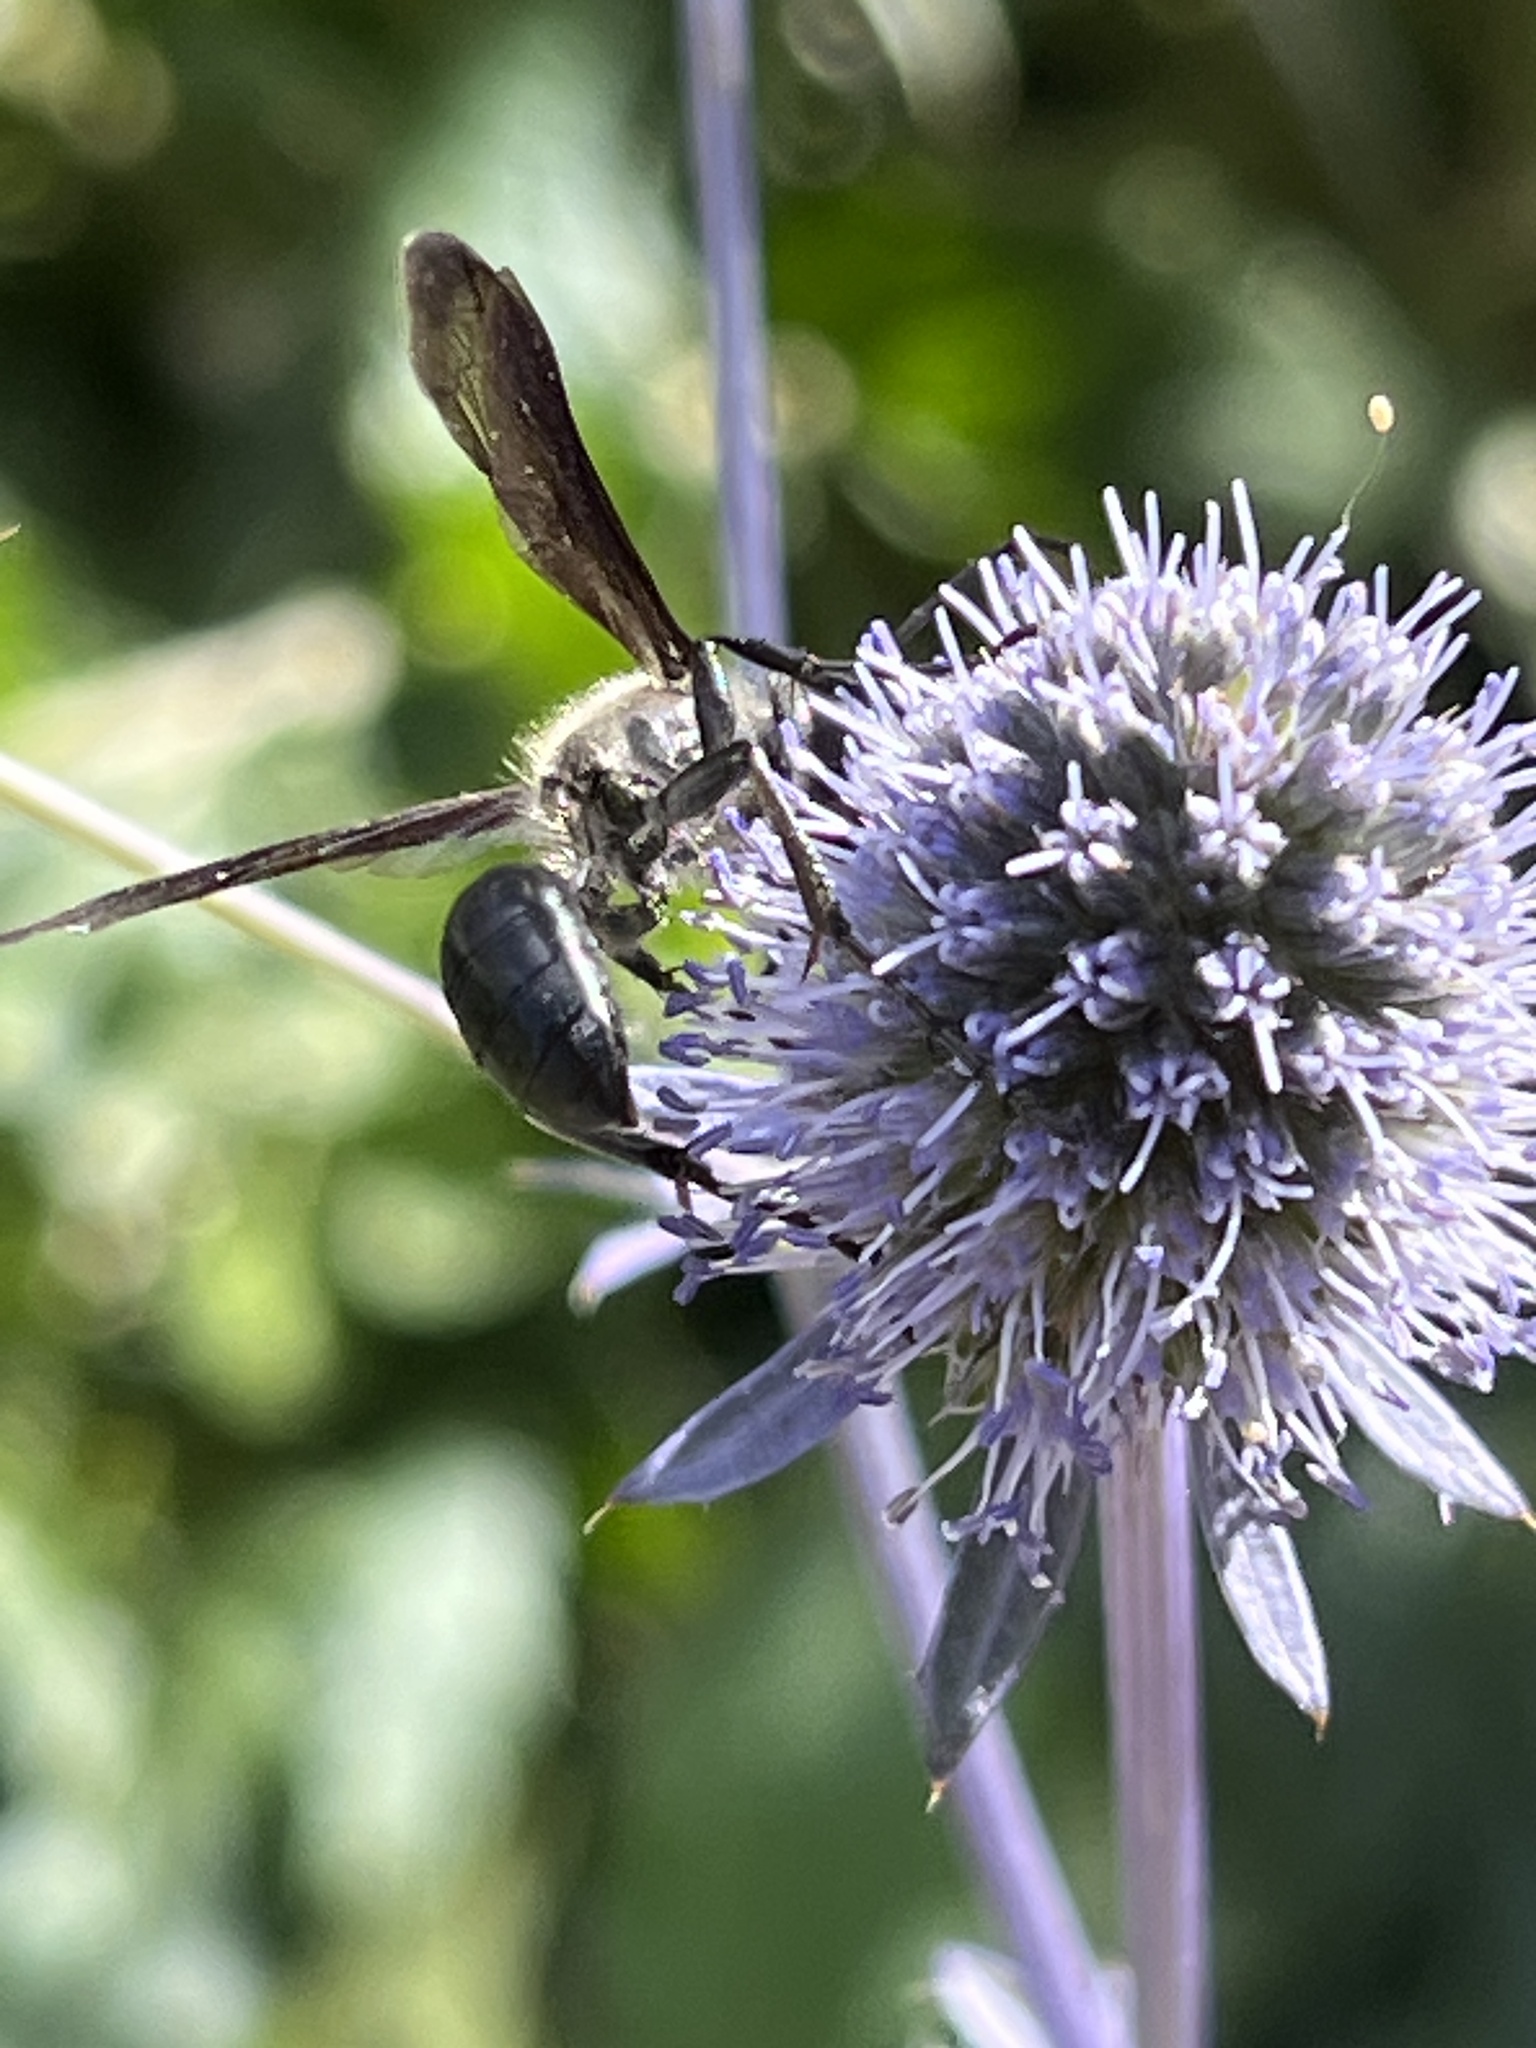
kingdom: Animalia
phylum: Arthropoda
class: Insecta
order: Hymenoptera
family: Sphecidae
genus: Isodontia
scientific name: Isodontia mexicana
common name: Mud dauber
